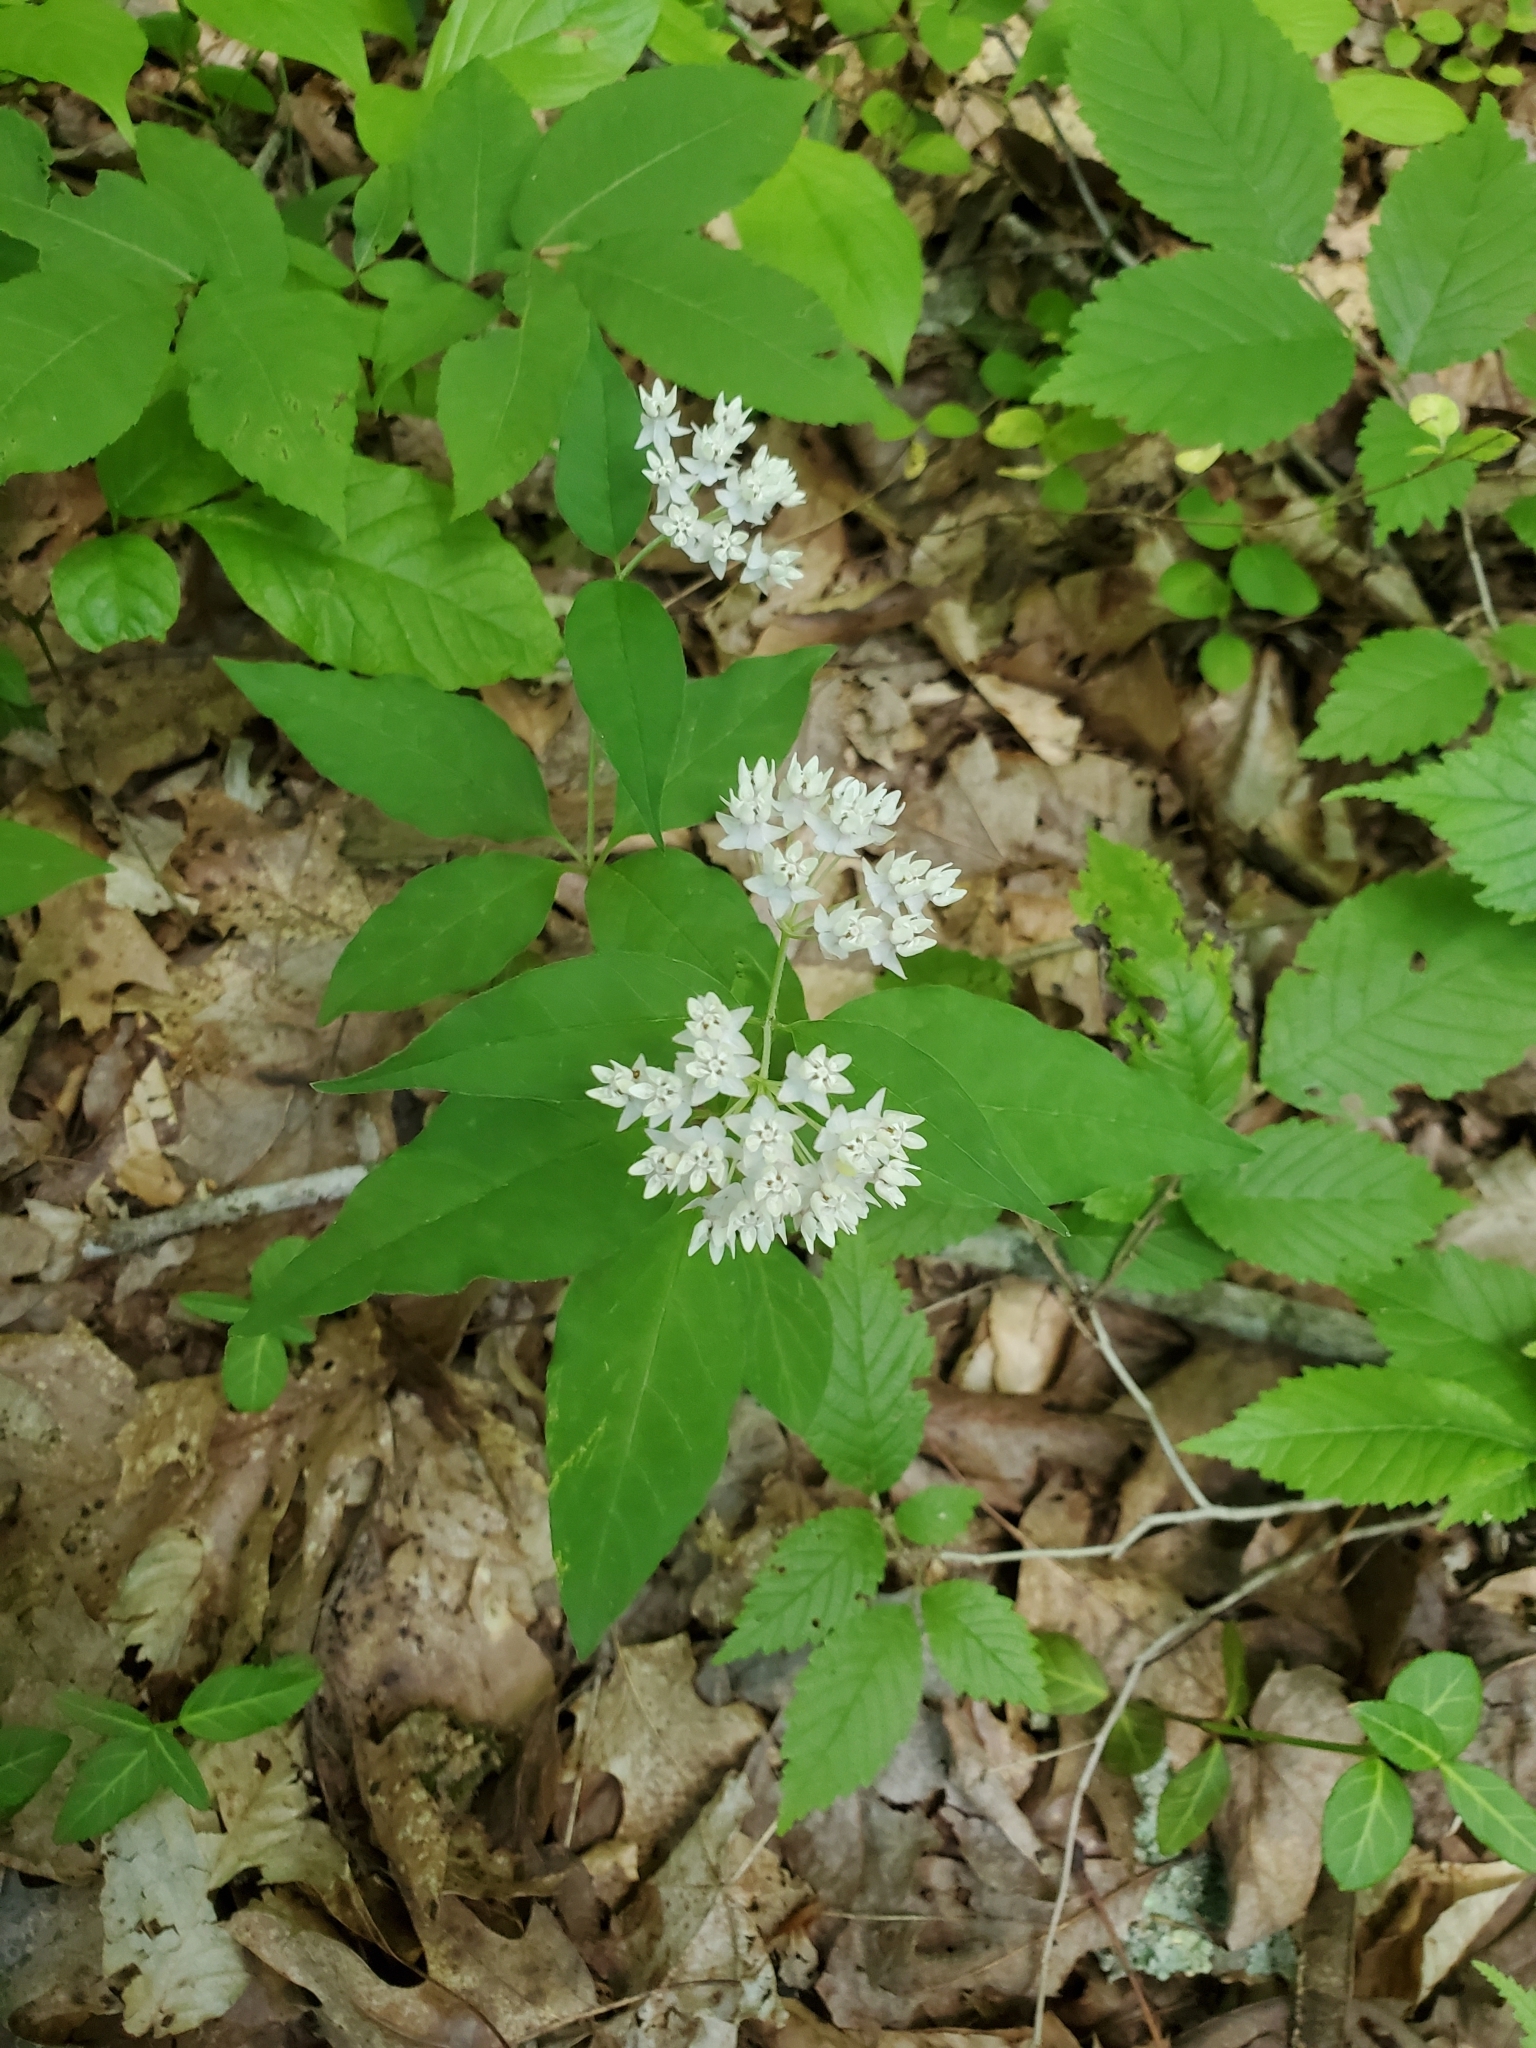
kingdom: Plantae
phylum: Tracheophyta
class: Magnoliopsida
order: Gentianales
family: Apocynaceae
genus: Asclepias
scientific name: Asclepias quadrifolia
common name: Whorled milkweed
